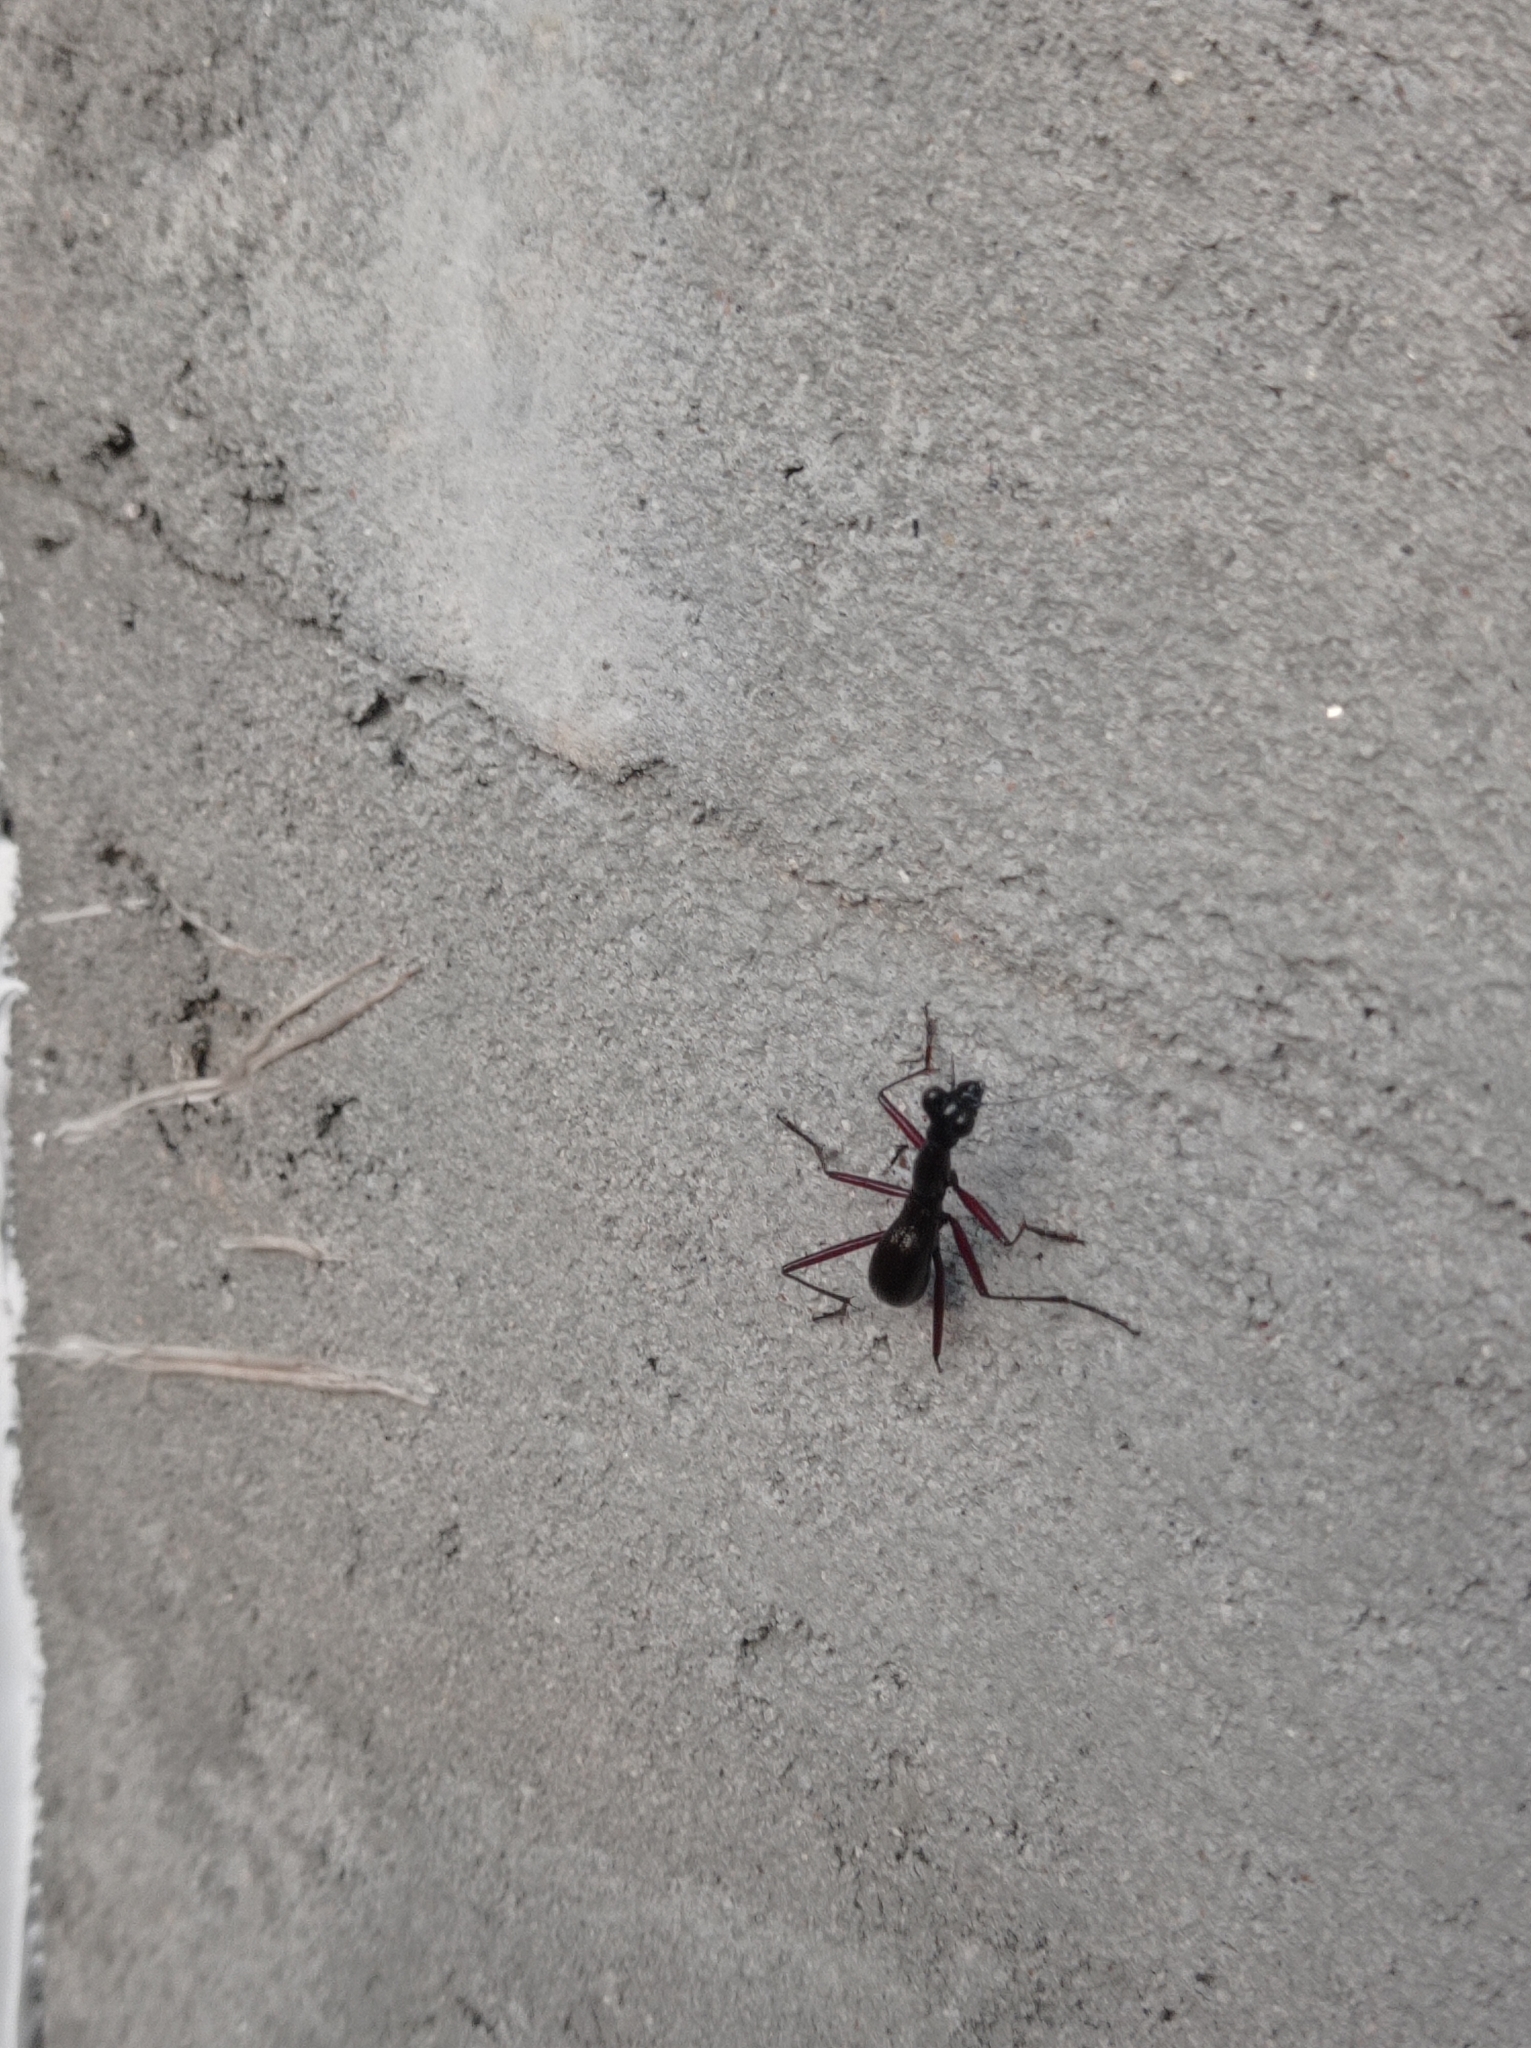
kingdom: Animalia
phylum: Arthropoda
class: Insecta
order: Coleoptera
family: Carabidae
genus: Tricondyla
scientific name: Tricondyla pulchripes
